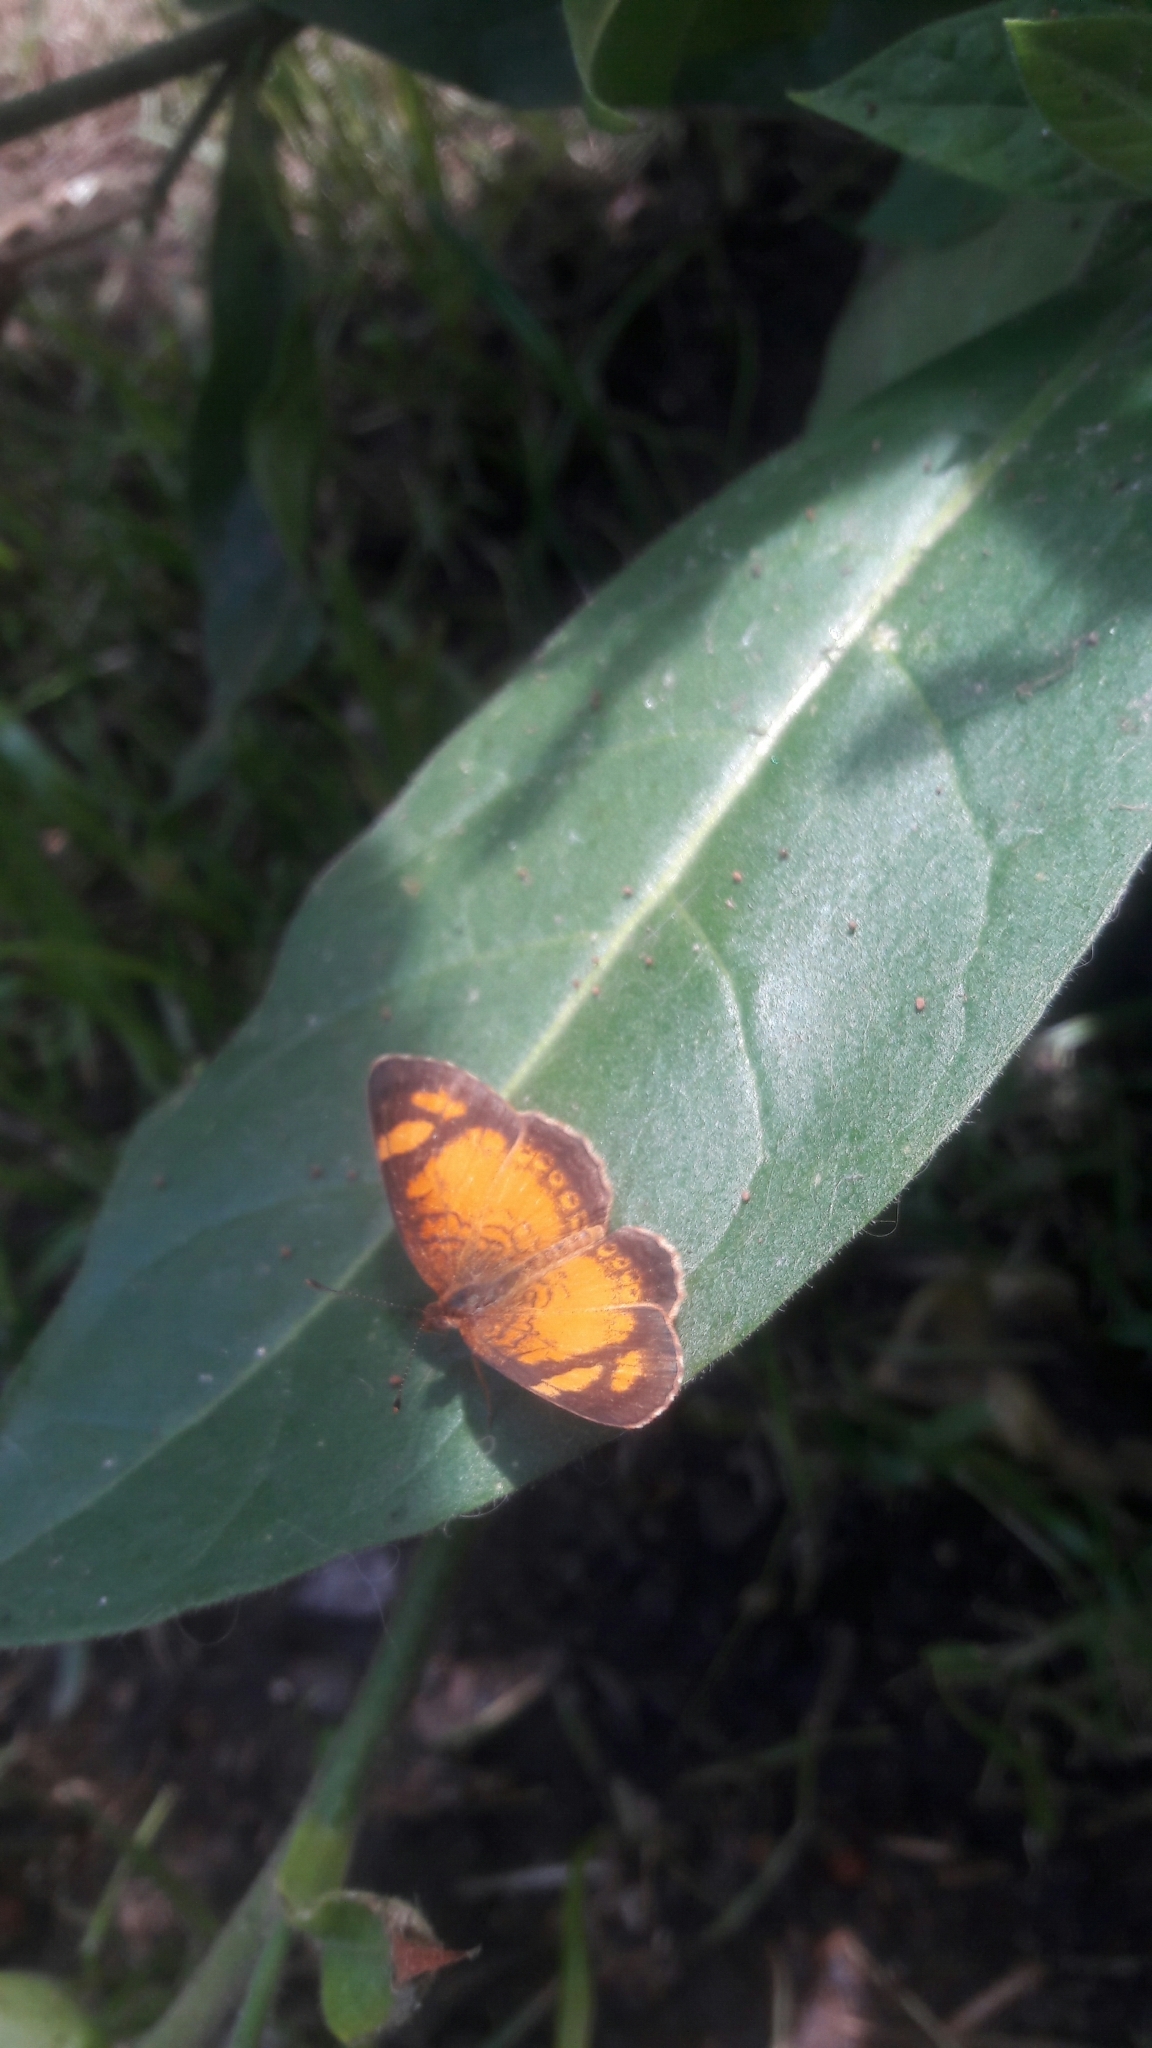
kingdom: Animalia
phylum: Arthropoda
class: Insecta
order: Lepidoptera
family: Nymphalidae
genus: Tegosa
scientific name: Tegosa claudina
